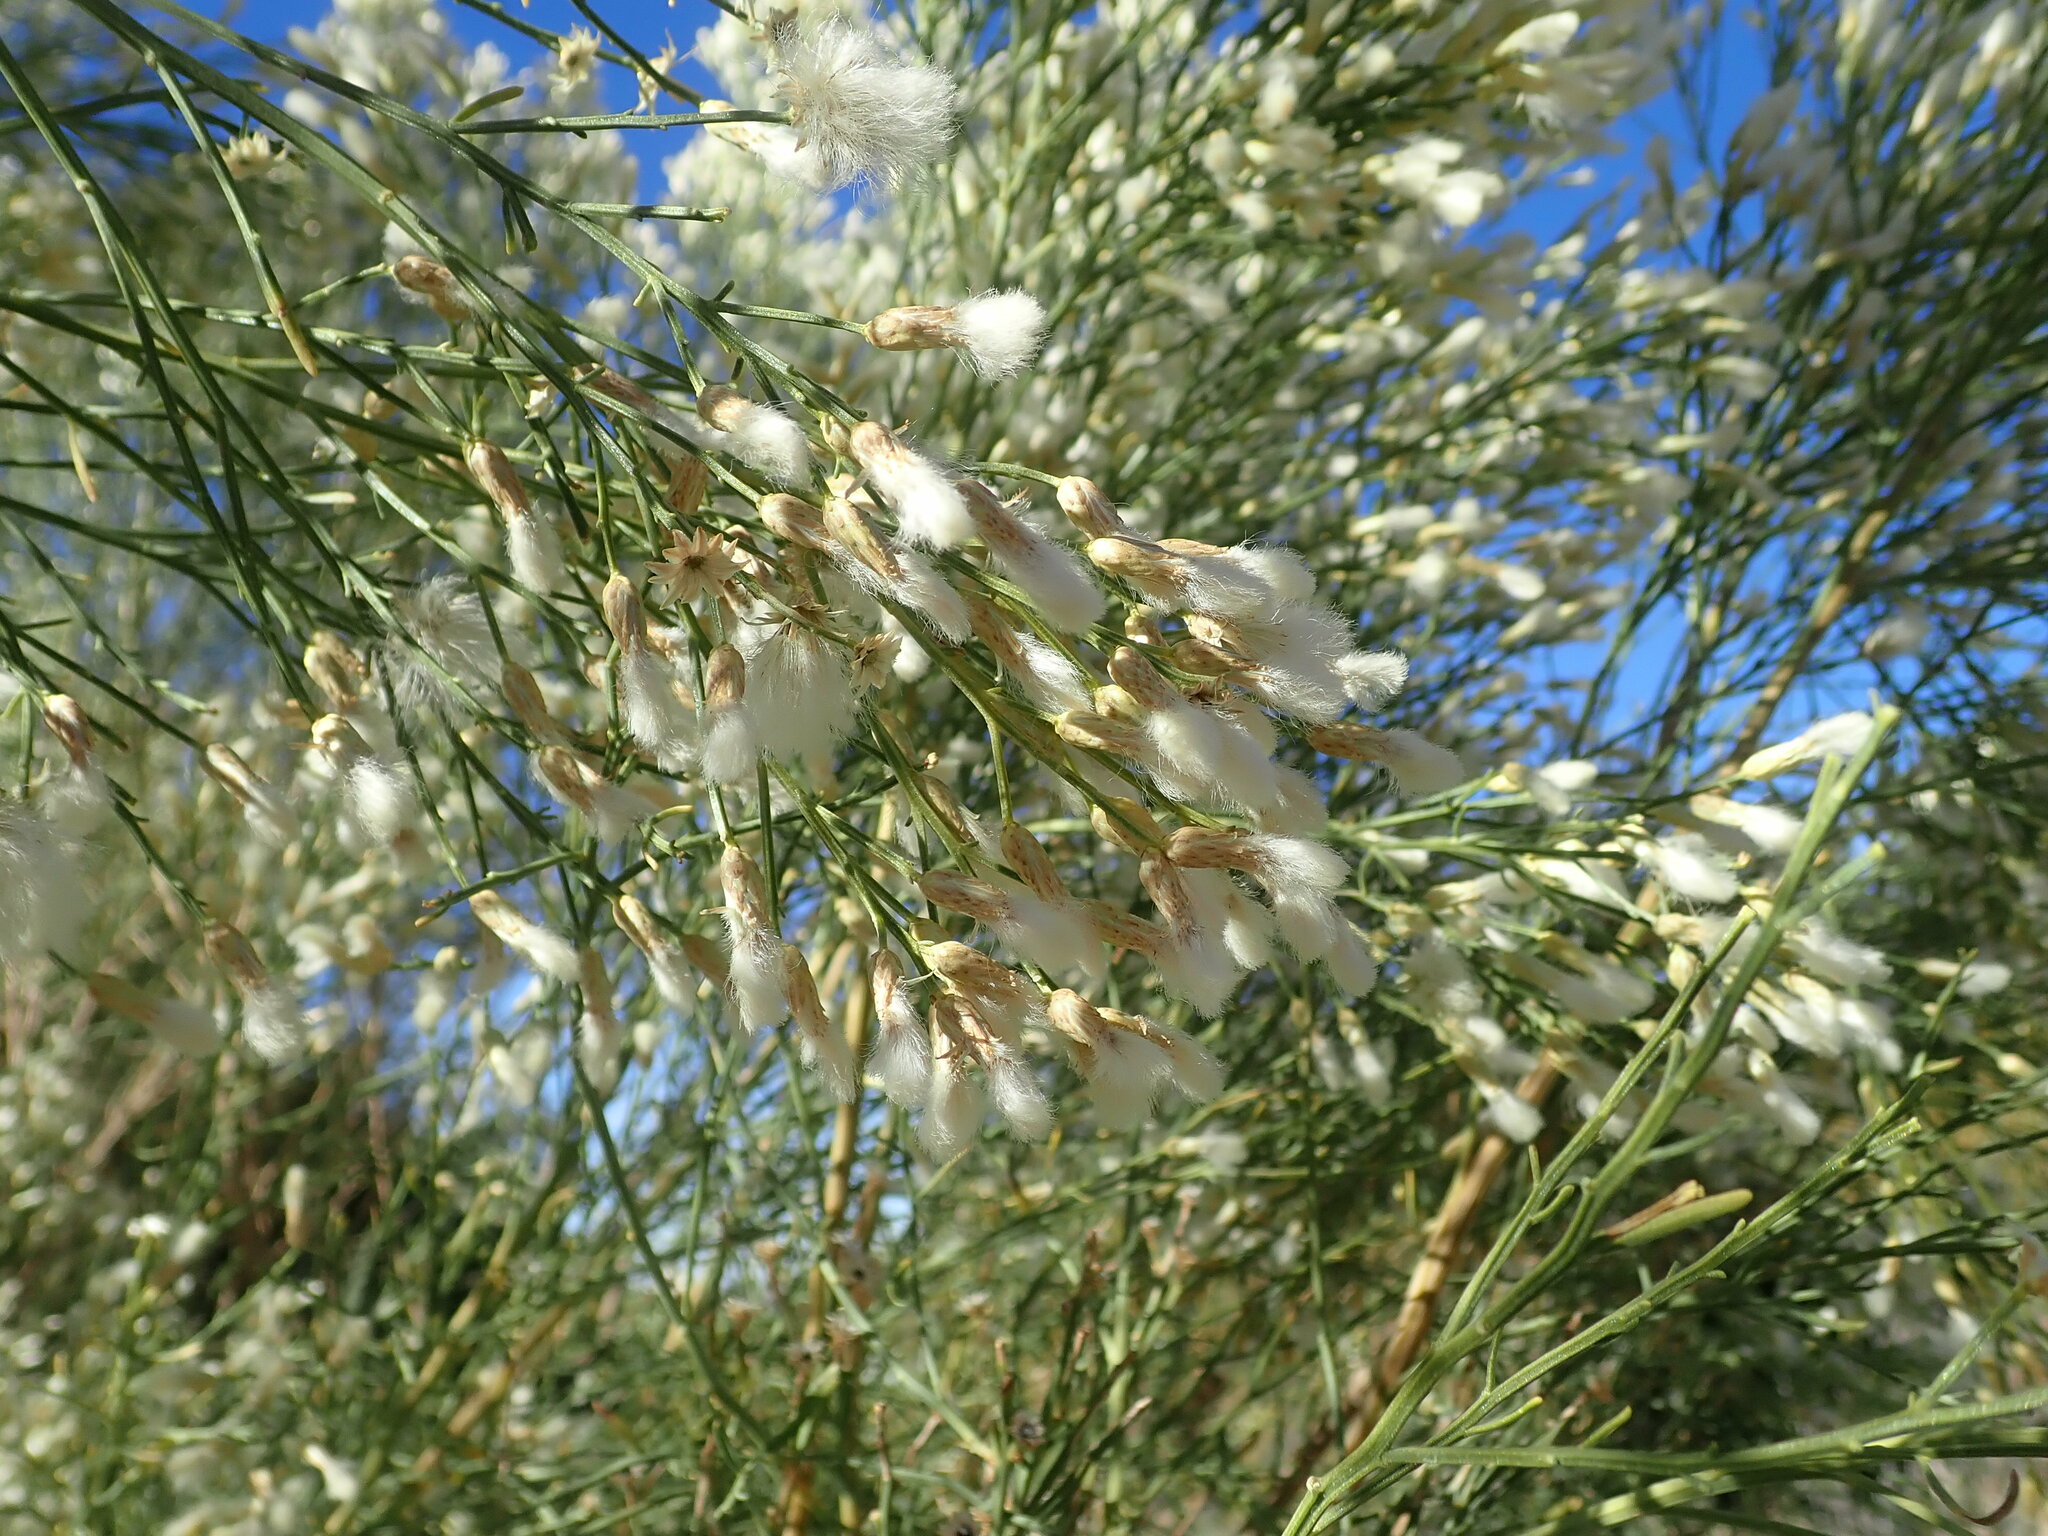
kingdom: Plantae
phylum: Tracheophyta
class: Magnoliopsida
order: Asterales
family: Asteraceae
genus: Baccharis
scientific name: Baccharis sarothroides
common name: Desert-broom
